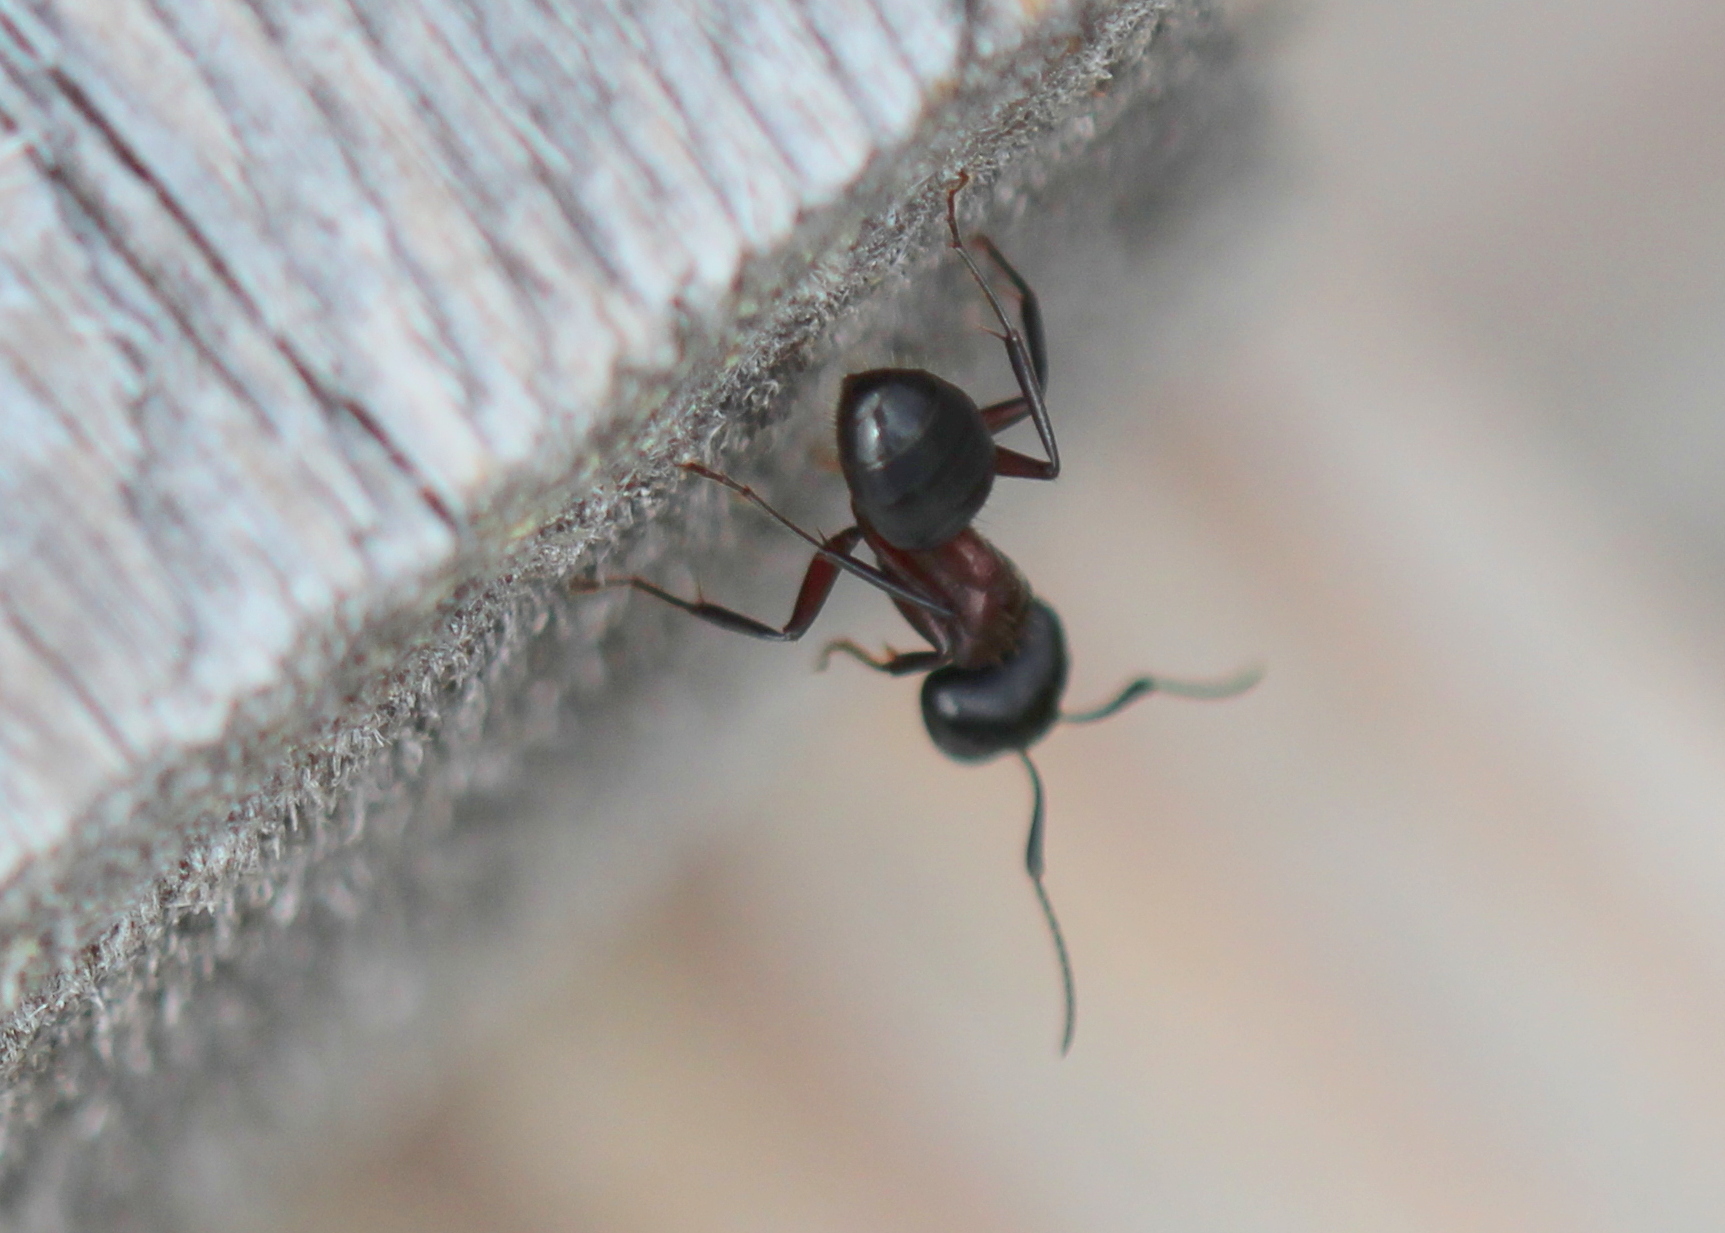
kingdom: Animalia
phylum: Arthropoda
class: Insecta
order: Hymenoptera
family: Formicidae
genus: Camponotus
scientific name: Camponotus novaeboracensis
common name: New york carpenter ant
